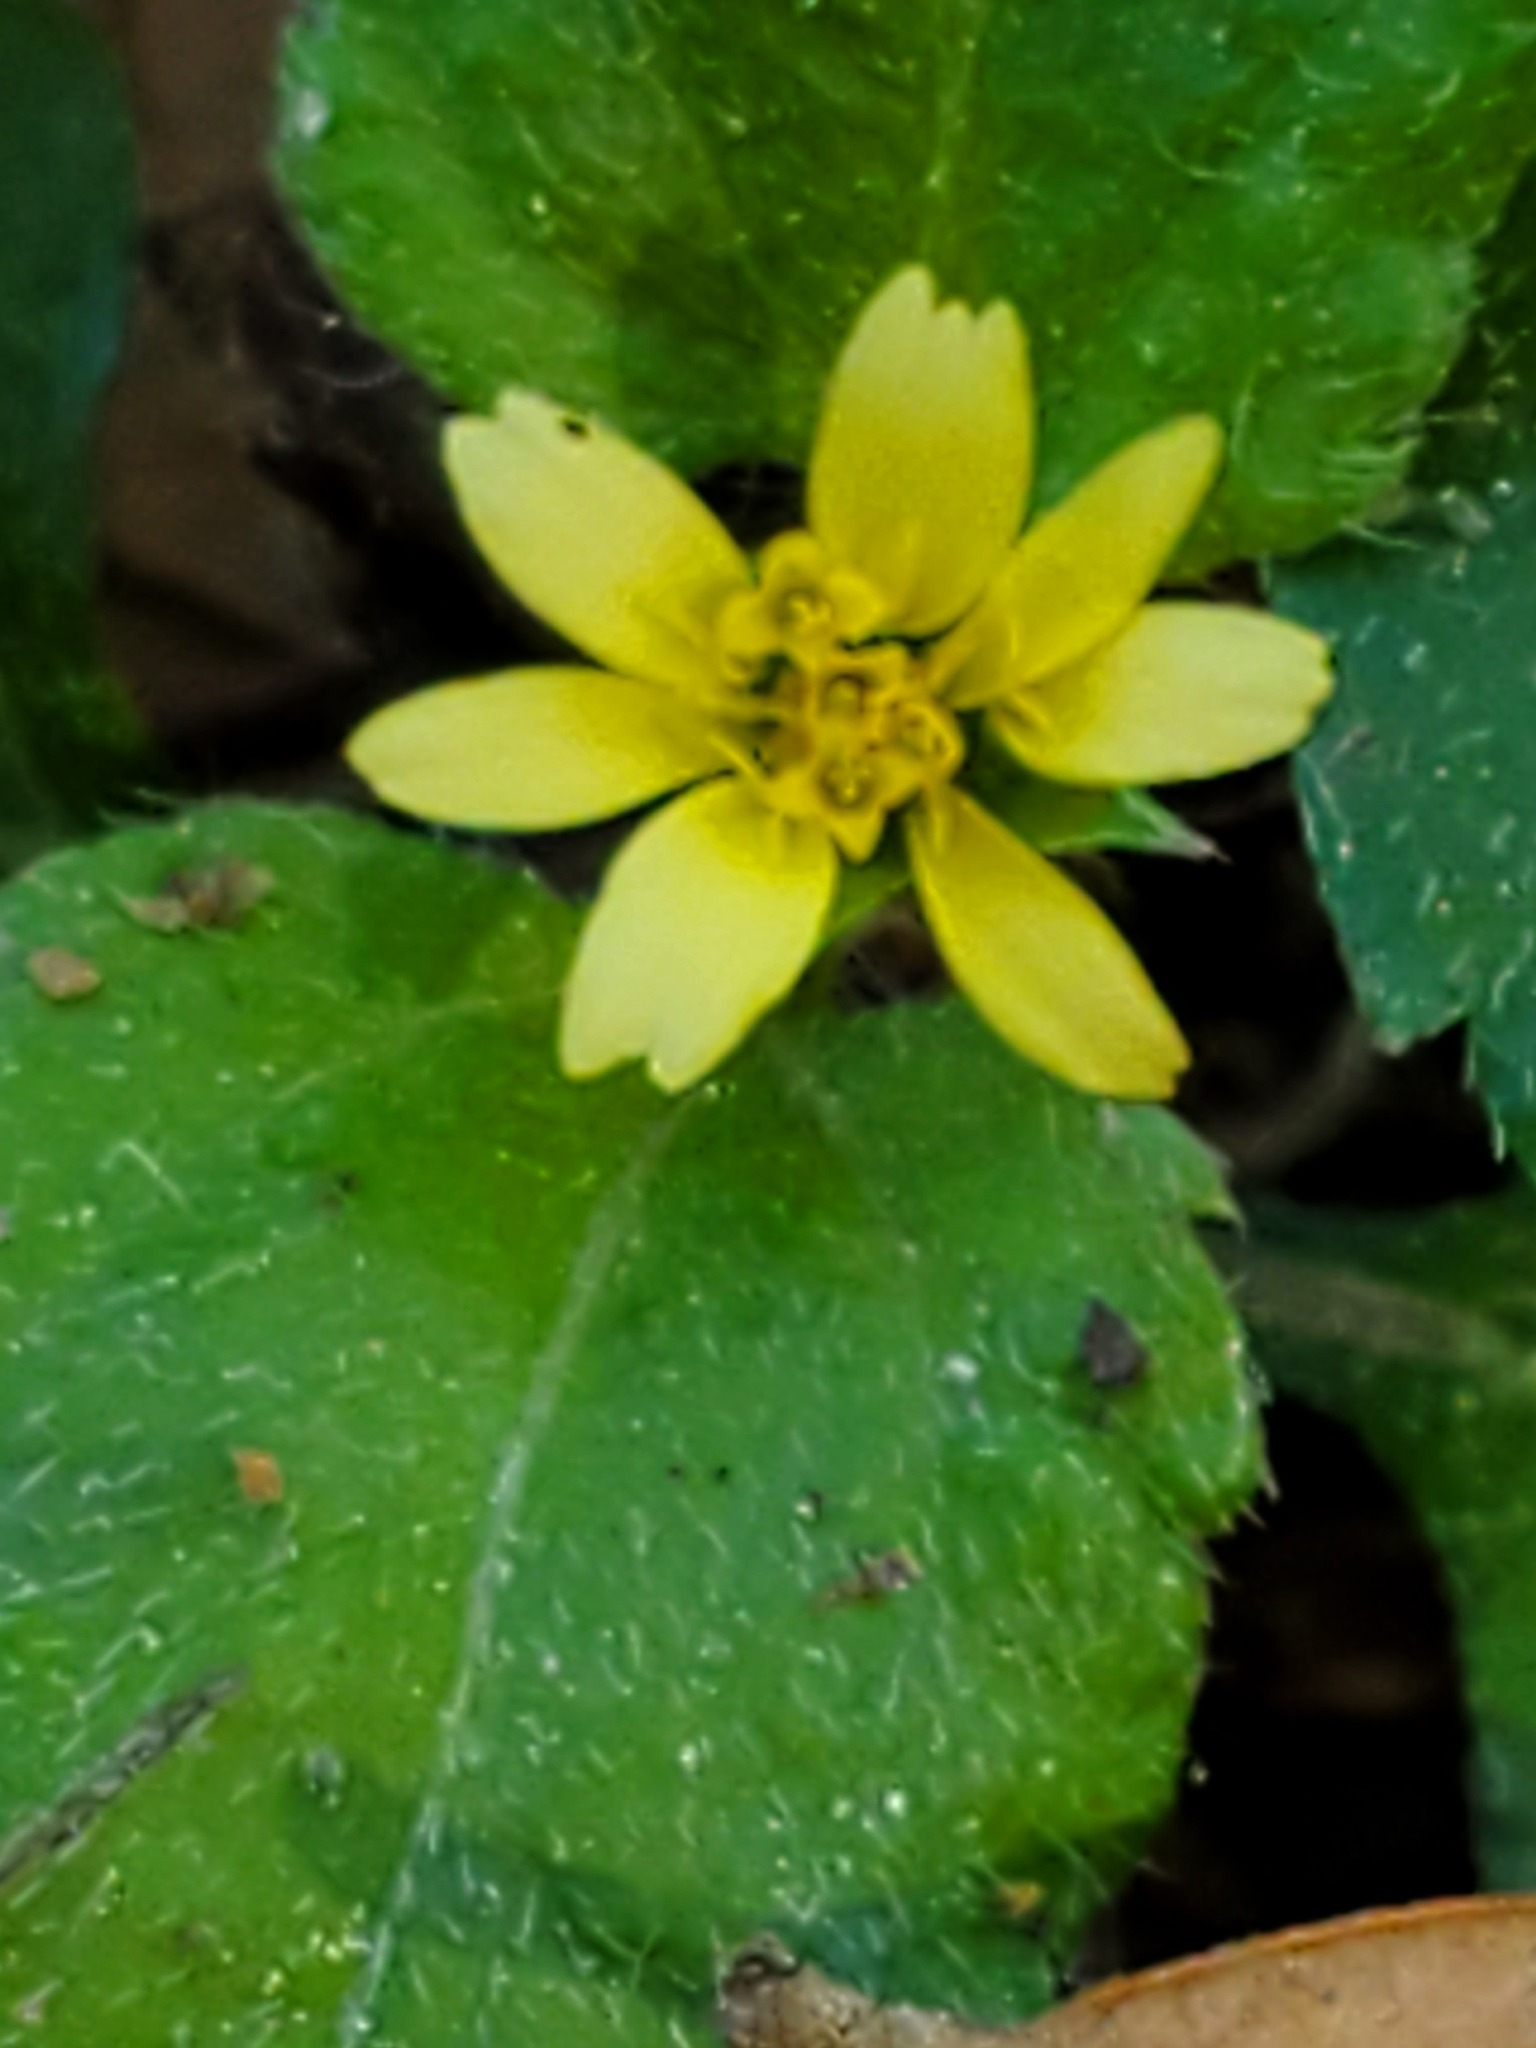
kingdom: Plantae
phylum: Tracheophyta
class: Magnoliopsida
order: Asterales
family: Asteraceae
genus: Calyptocarpus
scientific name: Calyptocarpus vialis
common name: Straggler daisy
